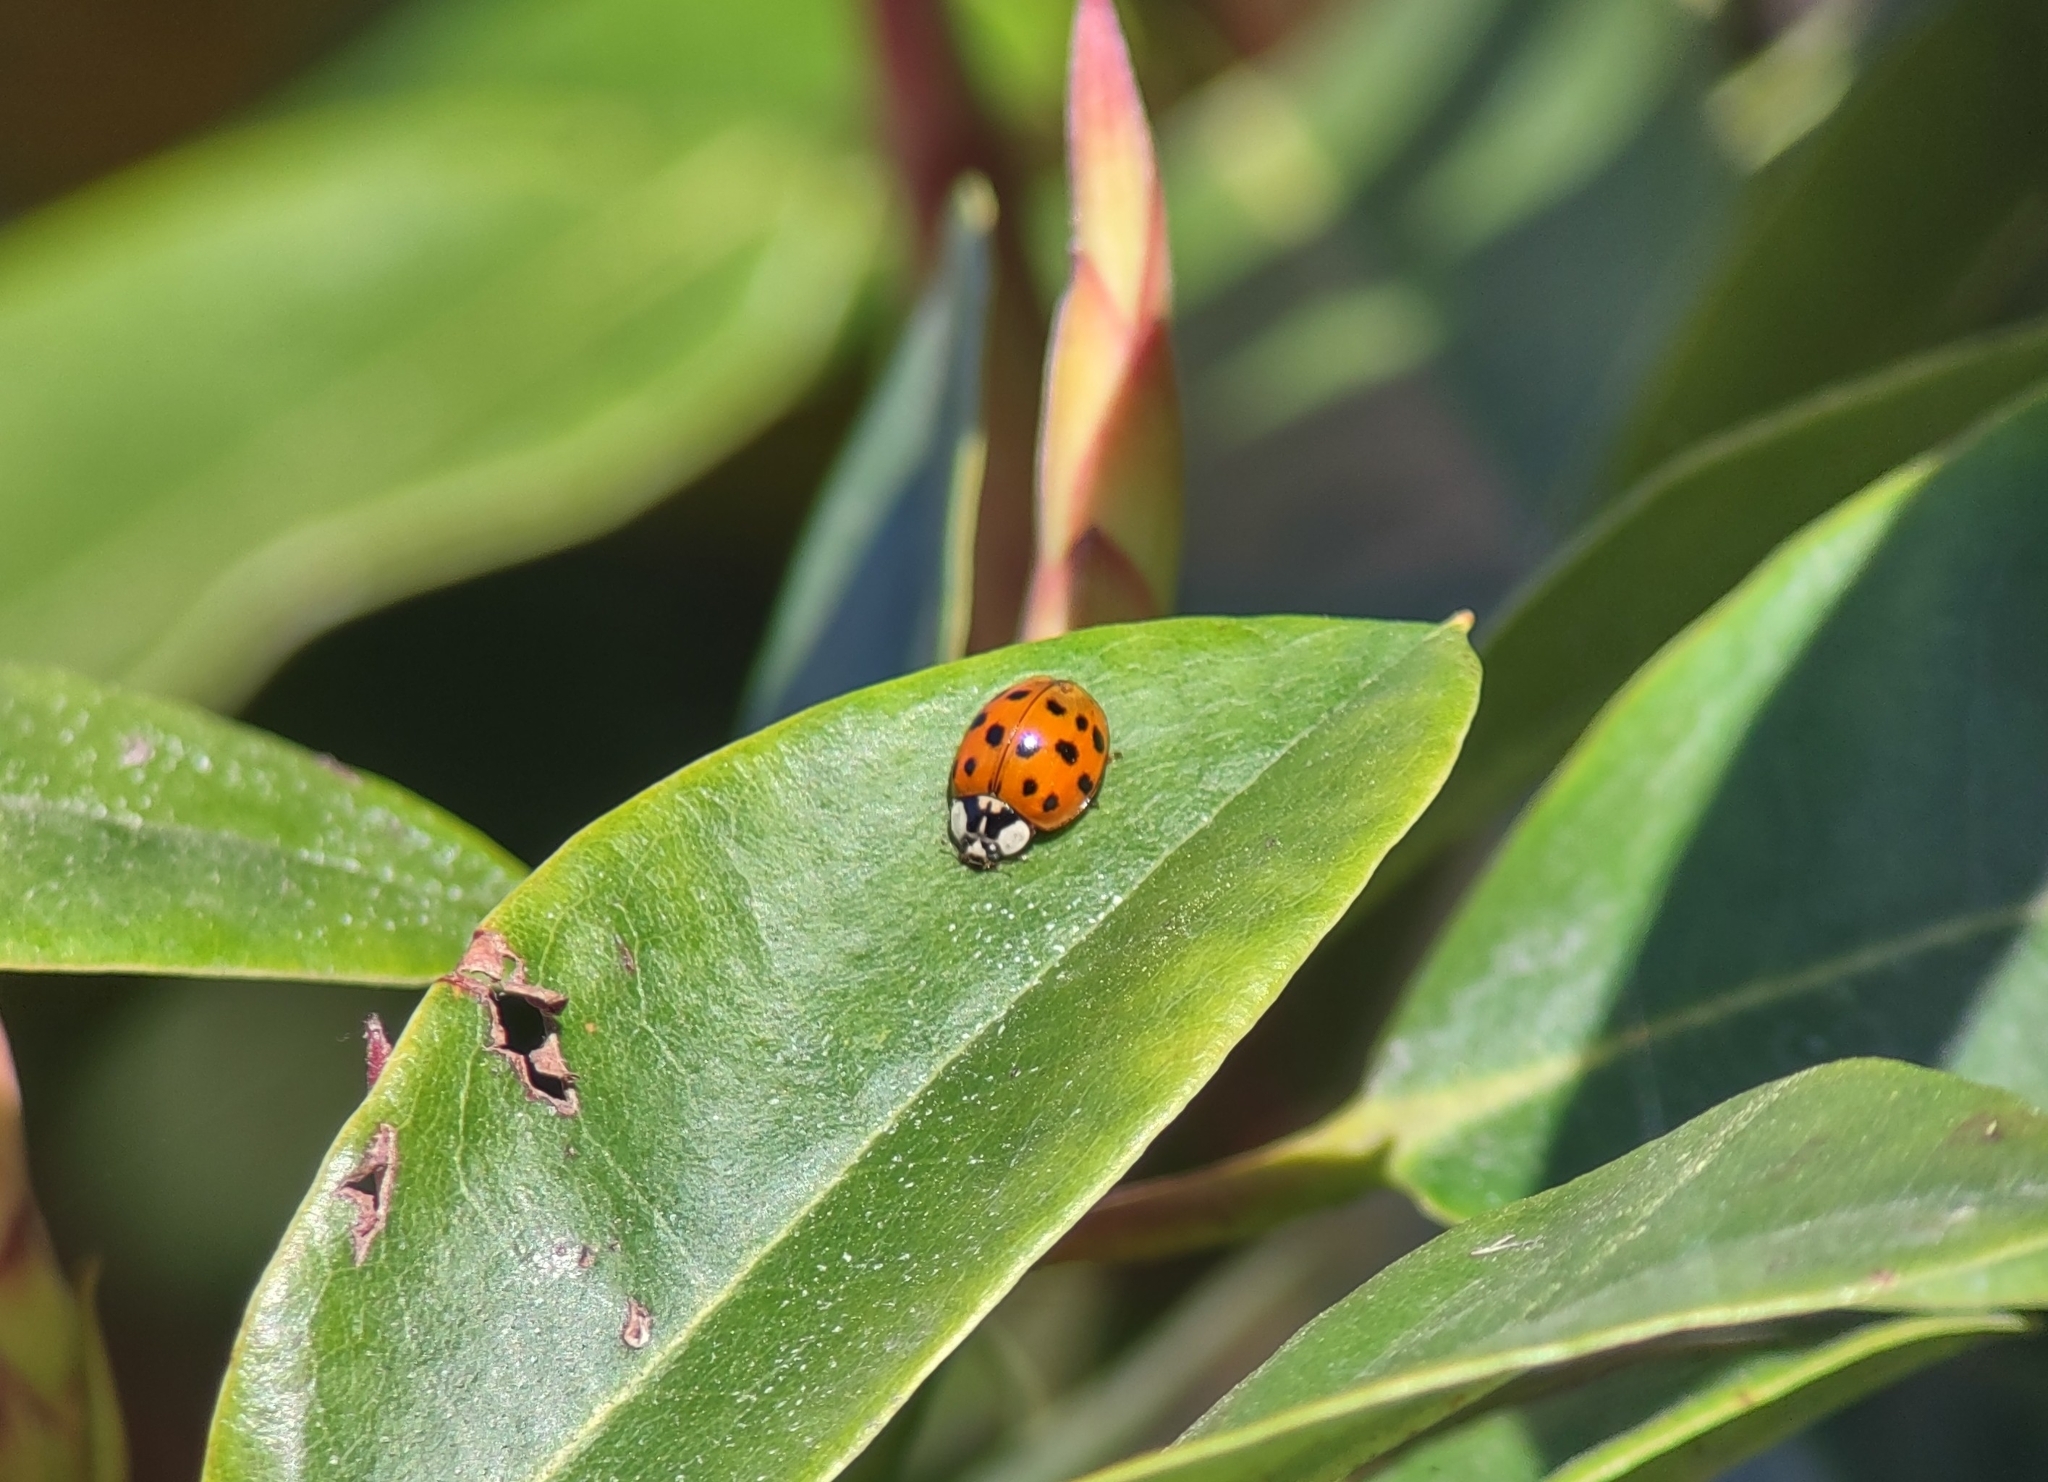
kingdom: Animalia
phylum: Arthropoda
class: Insecta
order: Coleoptera
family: Coccinellidae
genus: Harmonia
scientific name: Harmonia axyridis
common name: Harlequin ladybird
